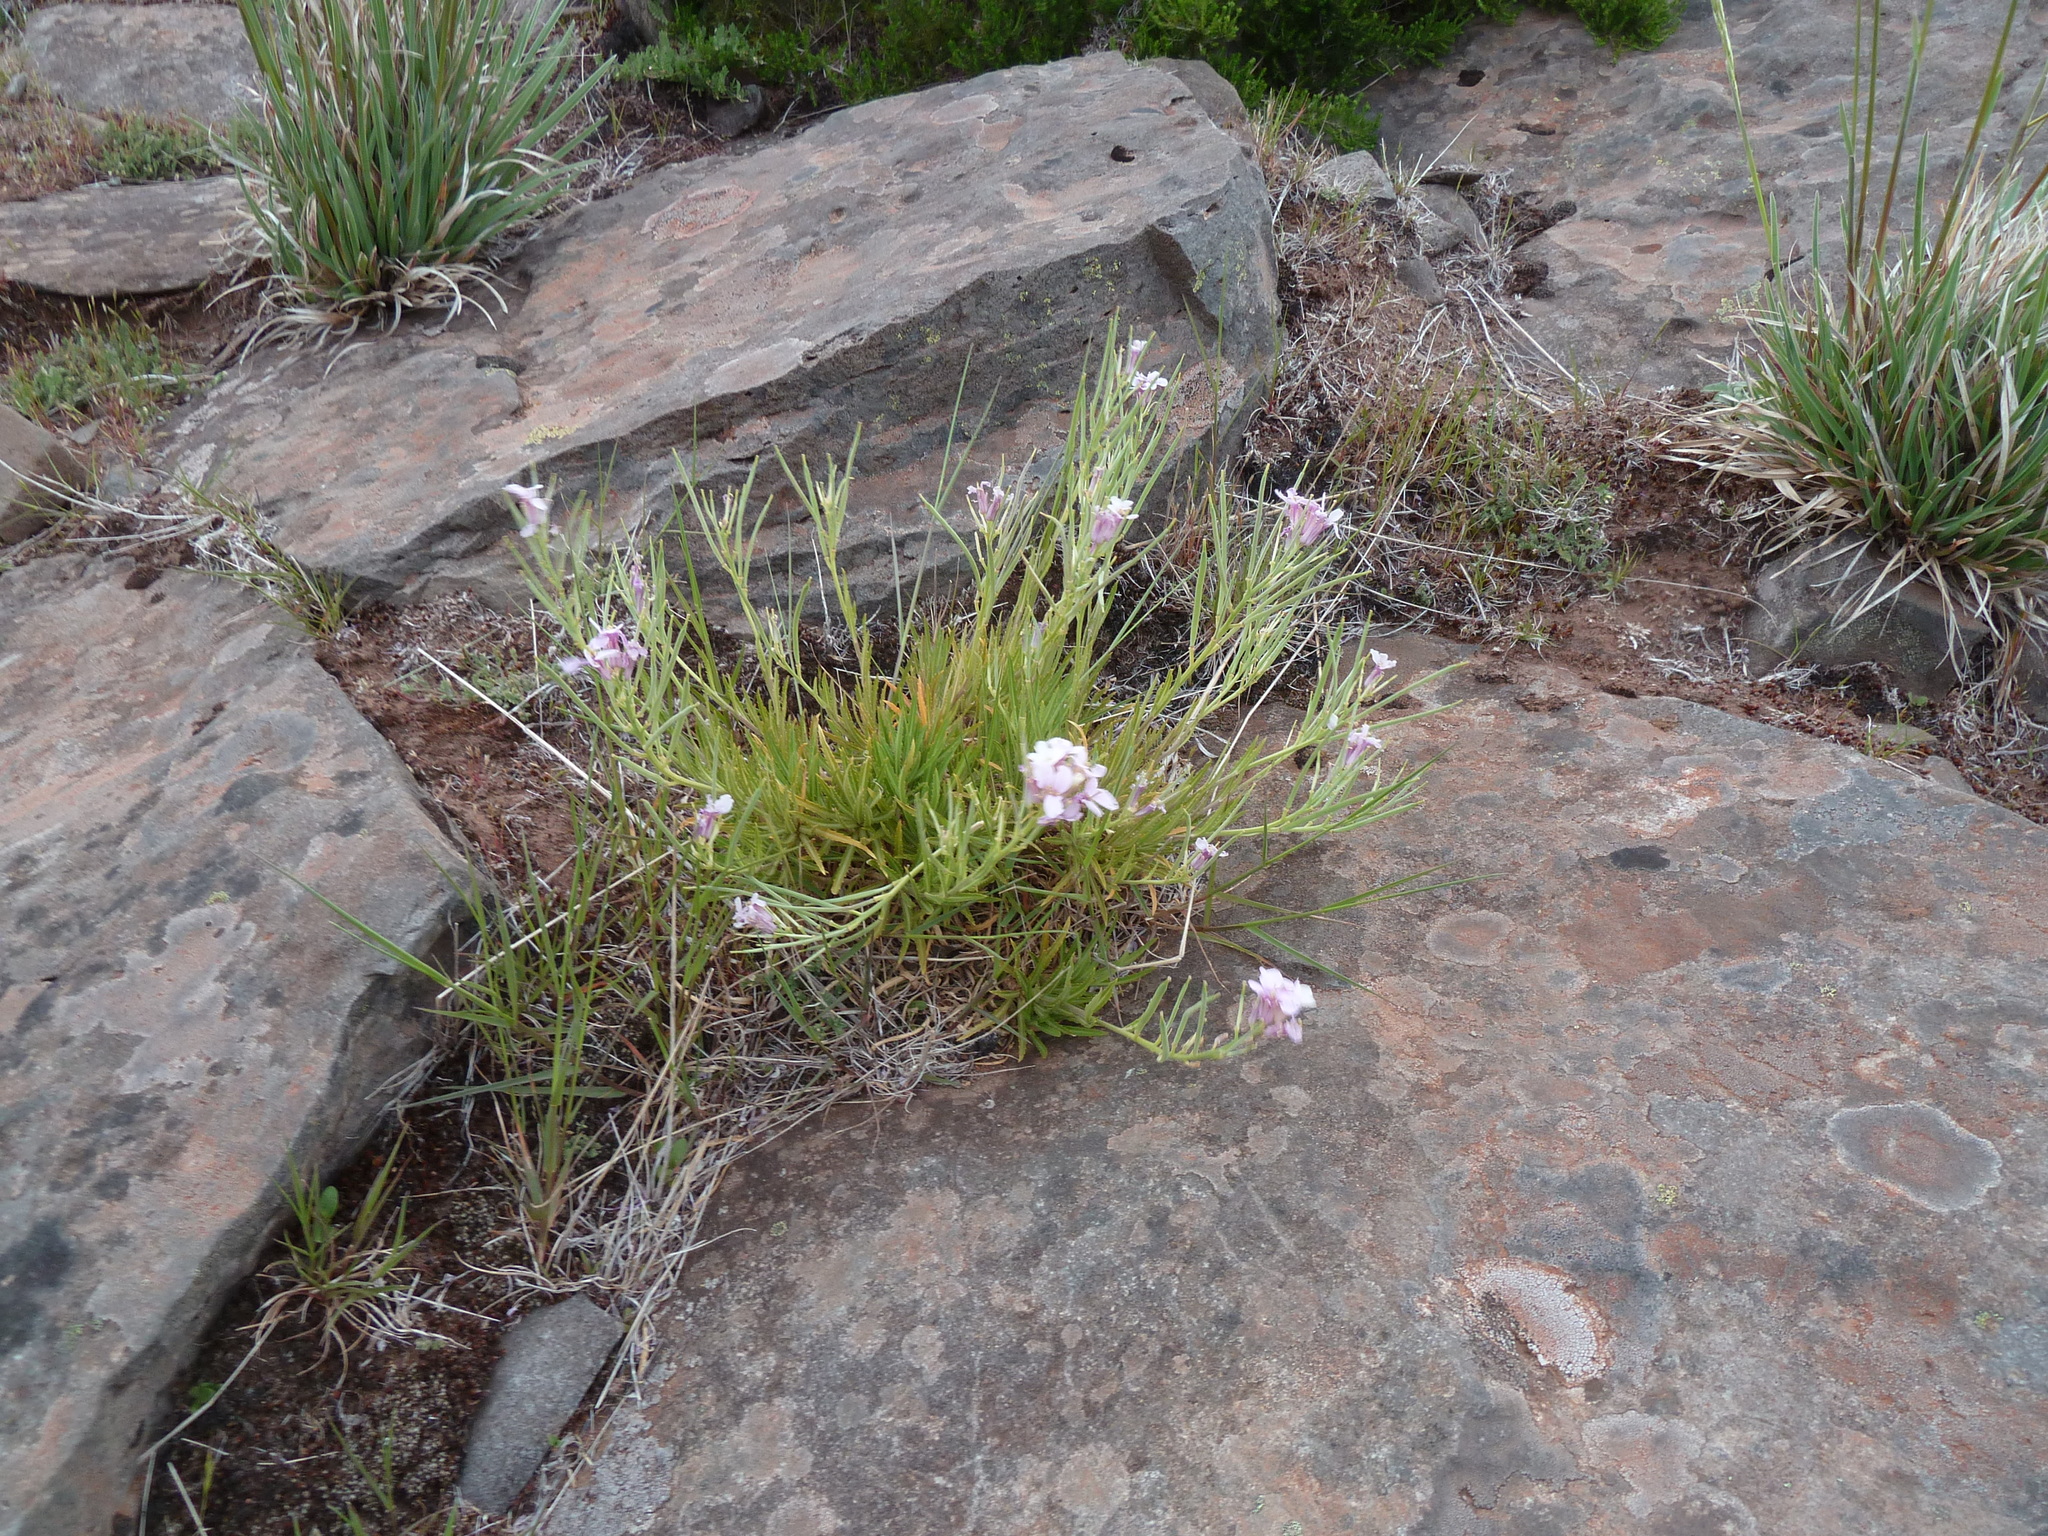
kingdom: Plantae
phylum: Tracheophyta
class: Magnoliopsida
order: Brassicales
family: Brassicaceae
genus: Erysimum
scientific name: Erysimum bicolor
